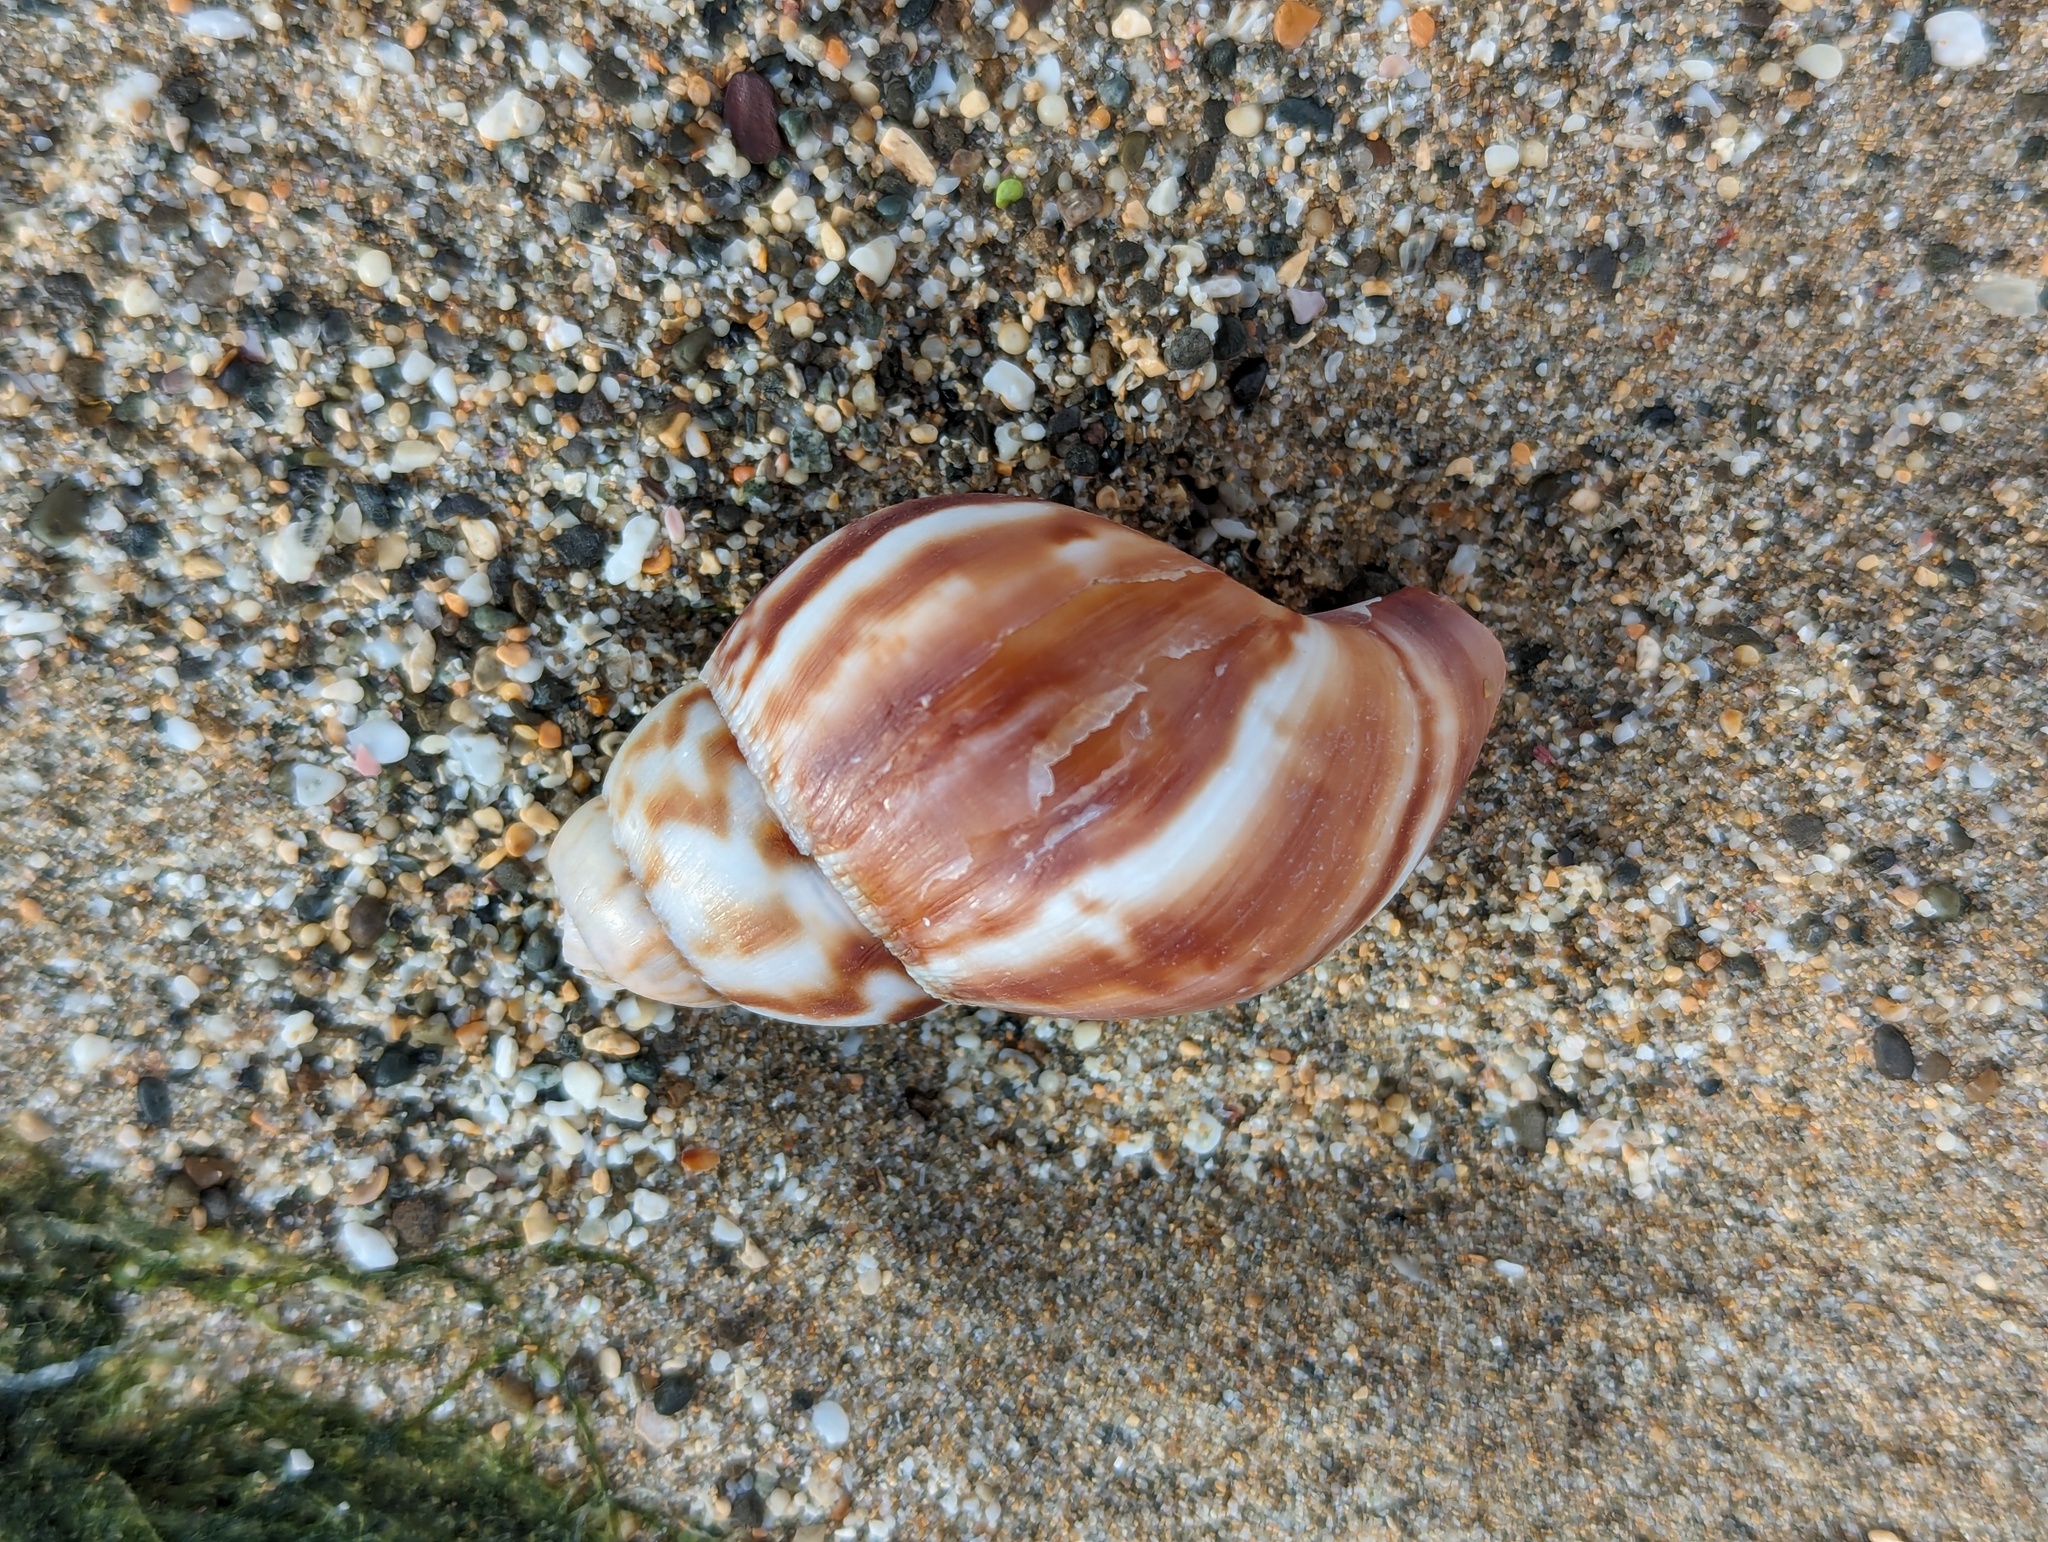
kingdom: Animalia
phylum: Mollusca
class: Gastropoda
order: Stylommatophora
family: Achatinidae
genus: Lissachatina
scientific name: Lissachatina fulica
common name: Giant african snail
